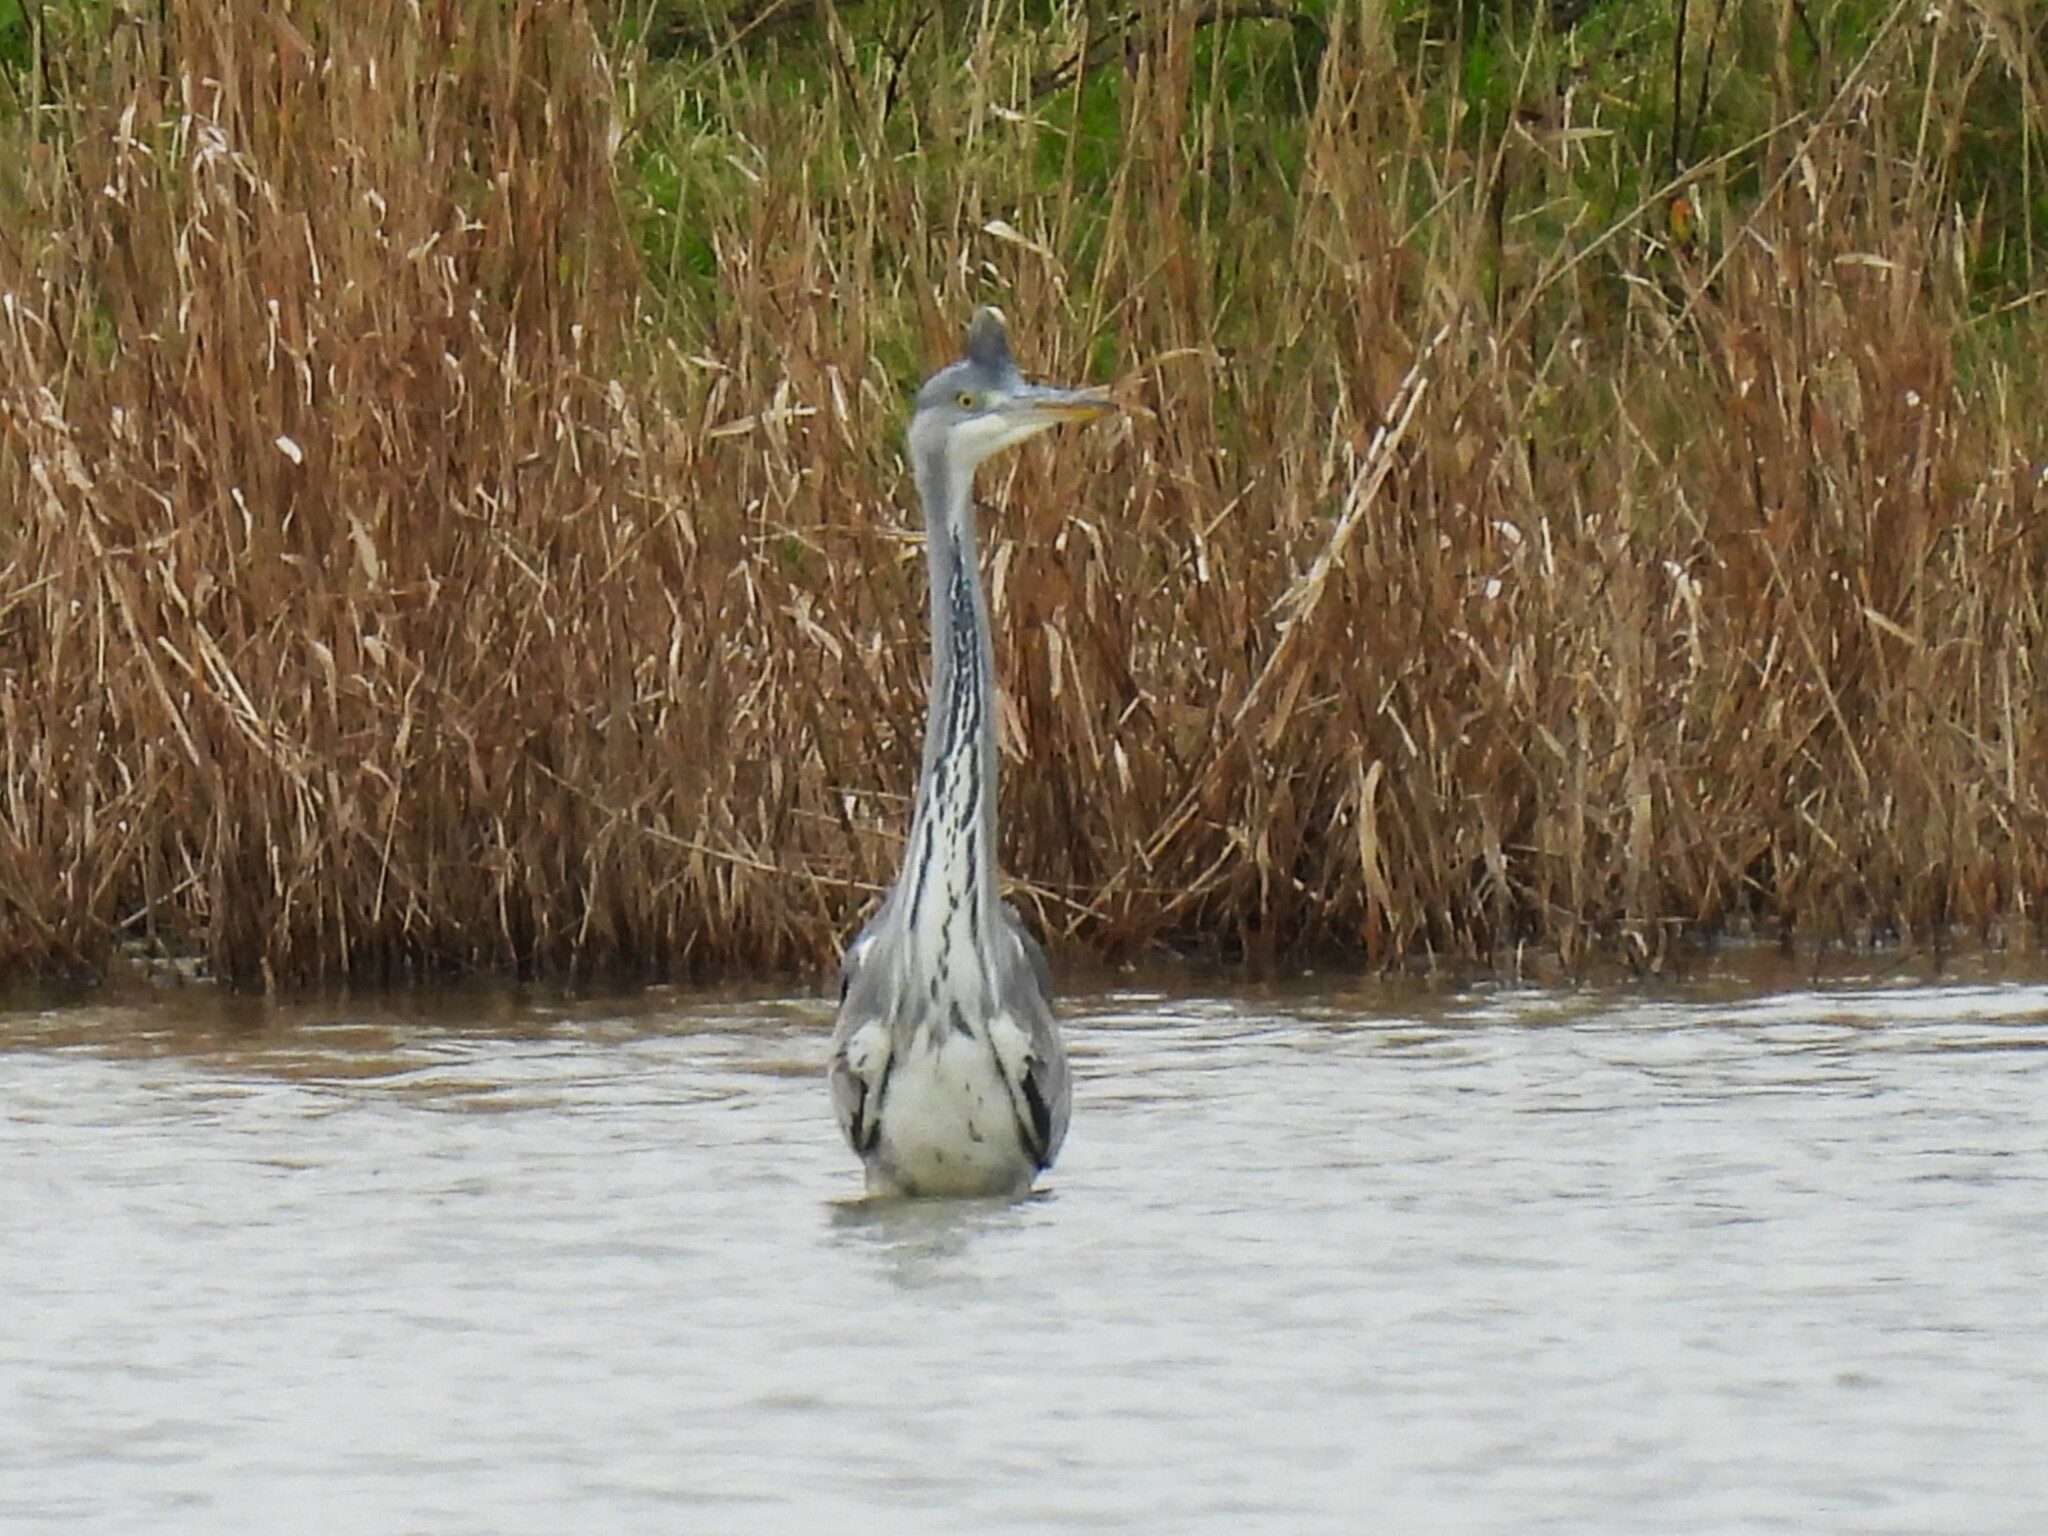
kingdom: Animalia
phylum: Chordata
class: Aves
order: Pelecaniformes
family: Ardeidae
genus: Ardea
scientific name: Ardea cinerea
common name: Grey heron
